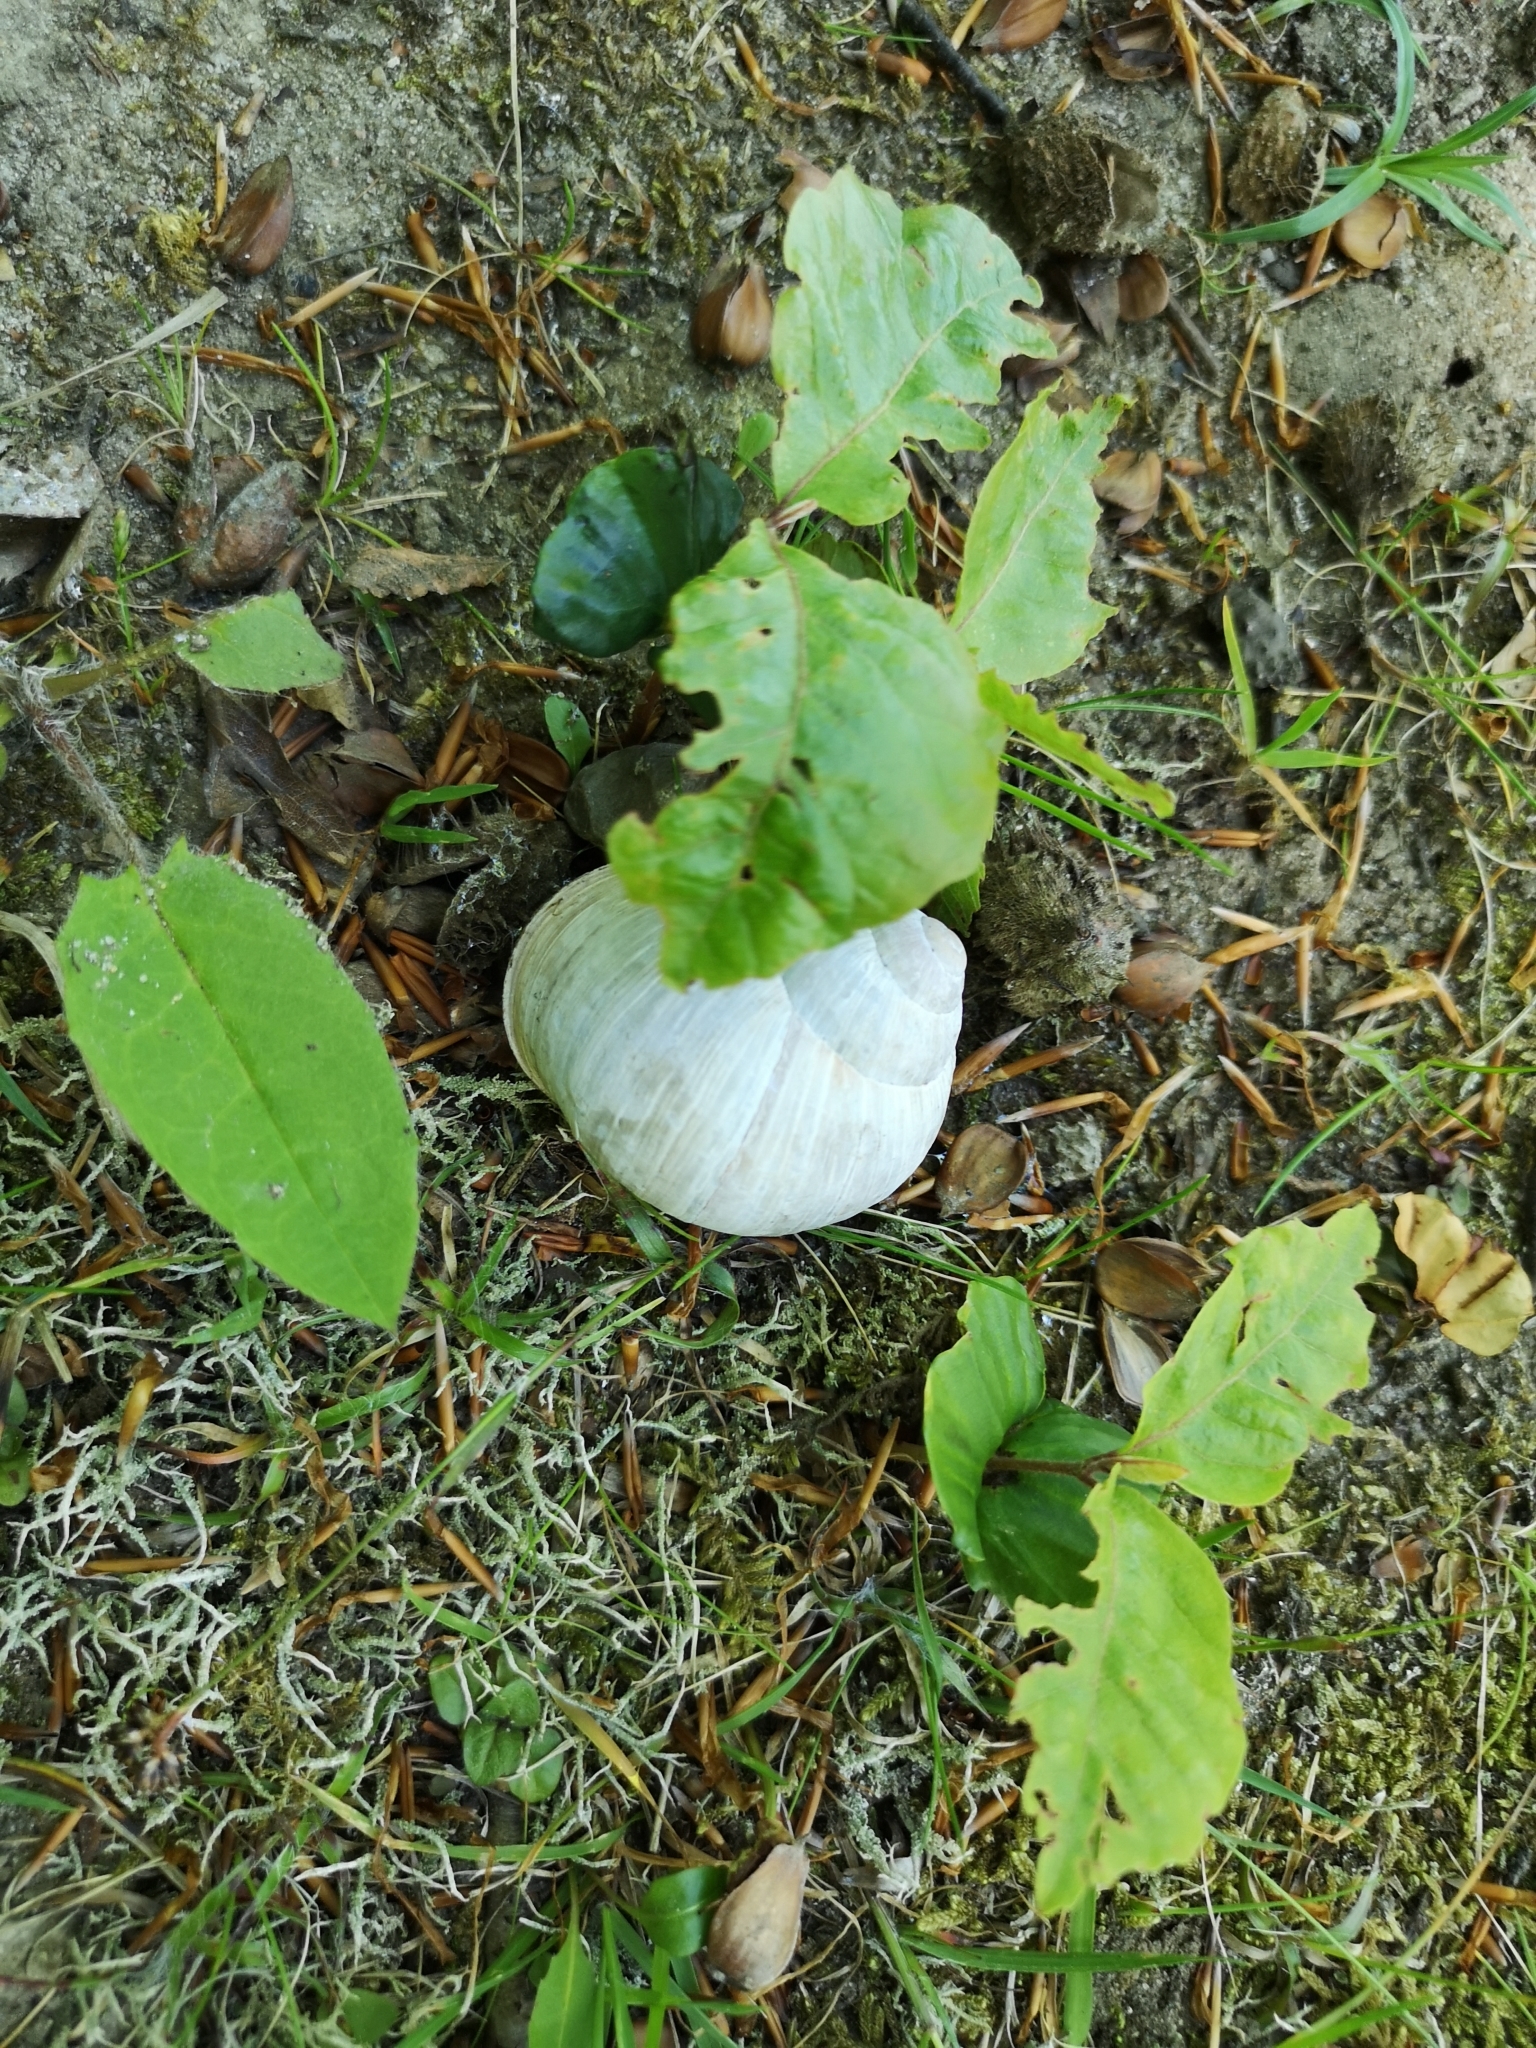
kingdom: Animalia
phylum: Mollusca
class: Gastropoda
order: Stylommatophora
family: Helicidae
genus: Helix
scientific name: Helix pomatia
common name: Roman snail
